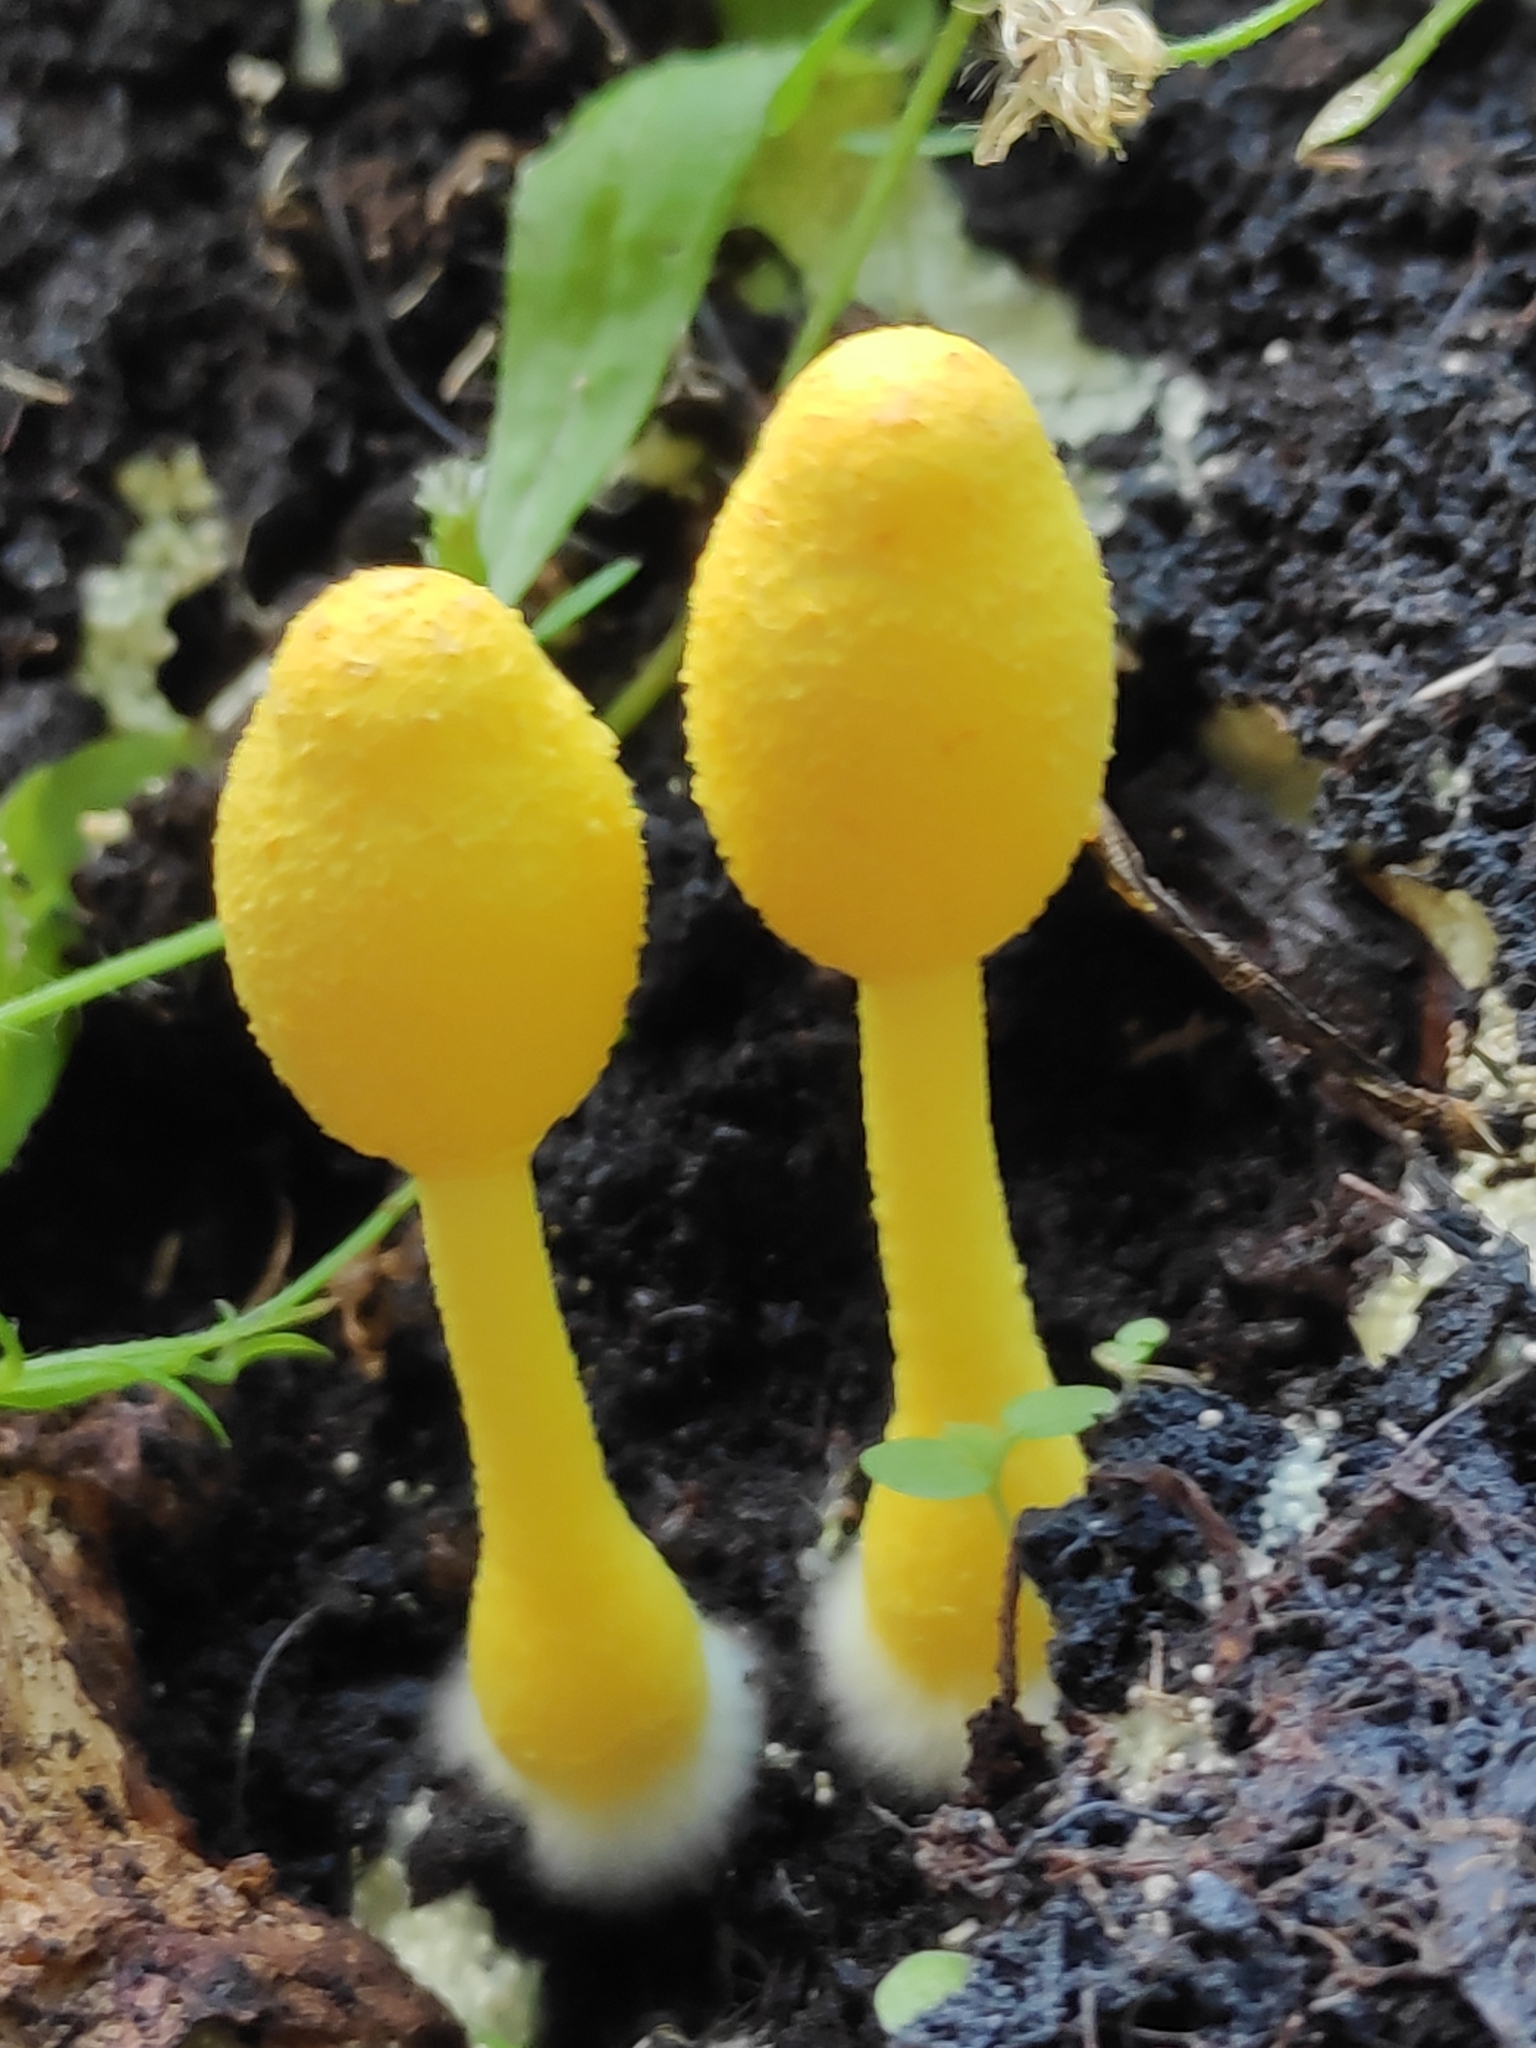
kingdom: Fungi
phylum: Basidiomycota
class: Agaricomycetes
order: Agaricales
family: Agaricaceae
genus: Leucocoprinus
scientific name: Leucocoprinus birnbaumii
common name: Plantpot dapperling
